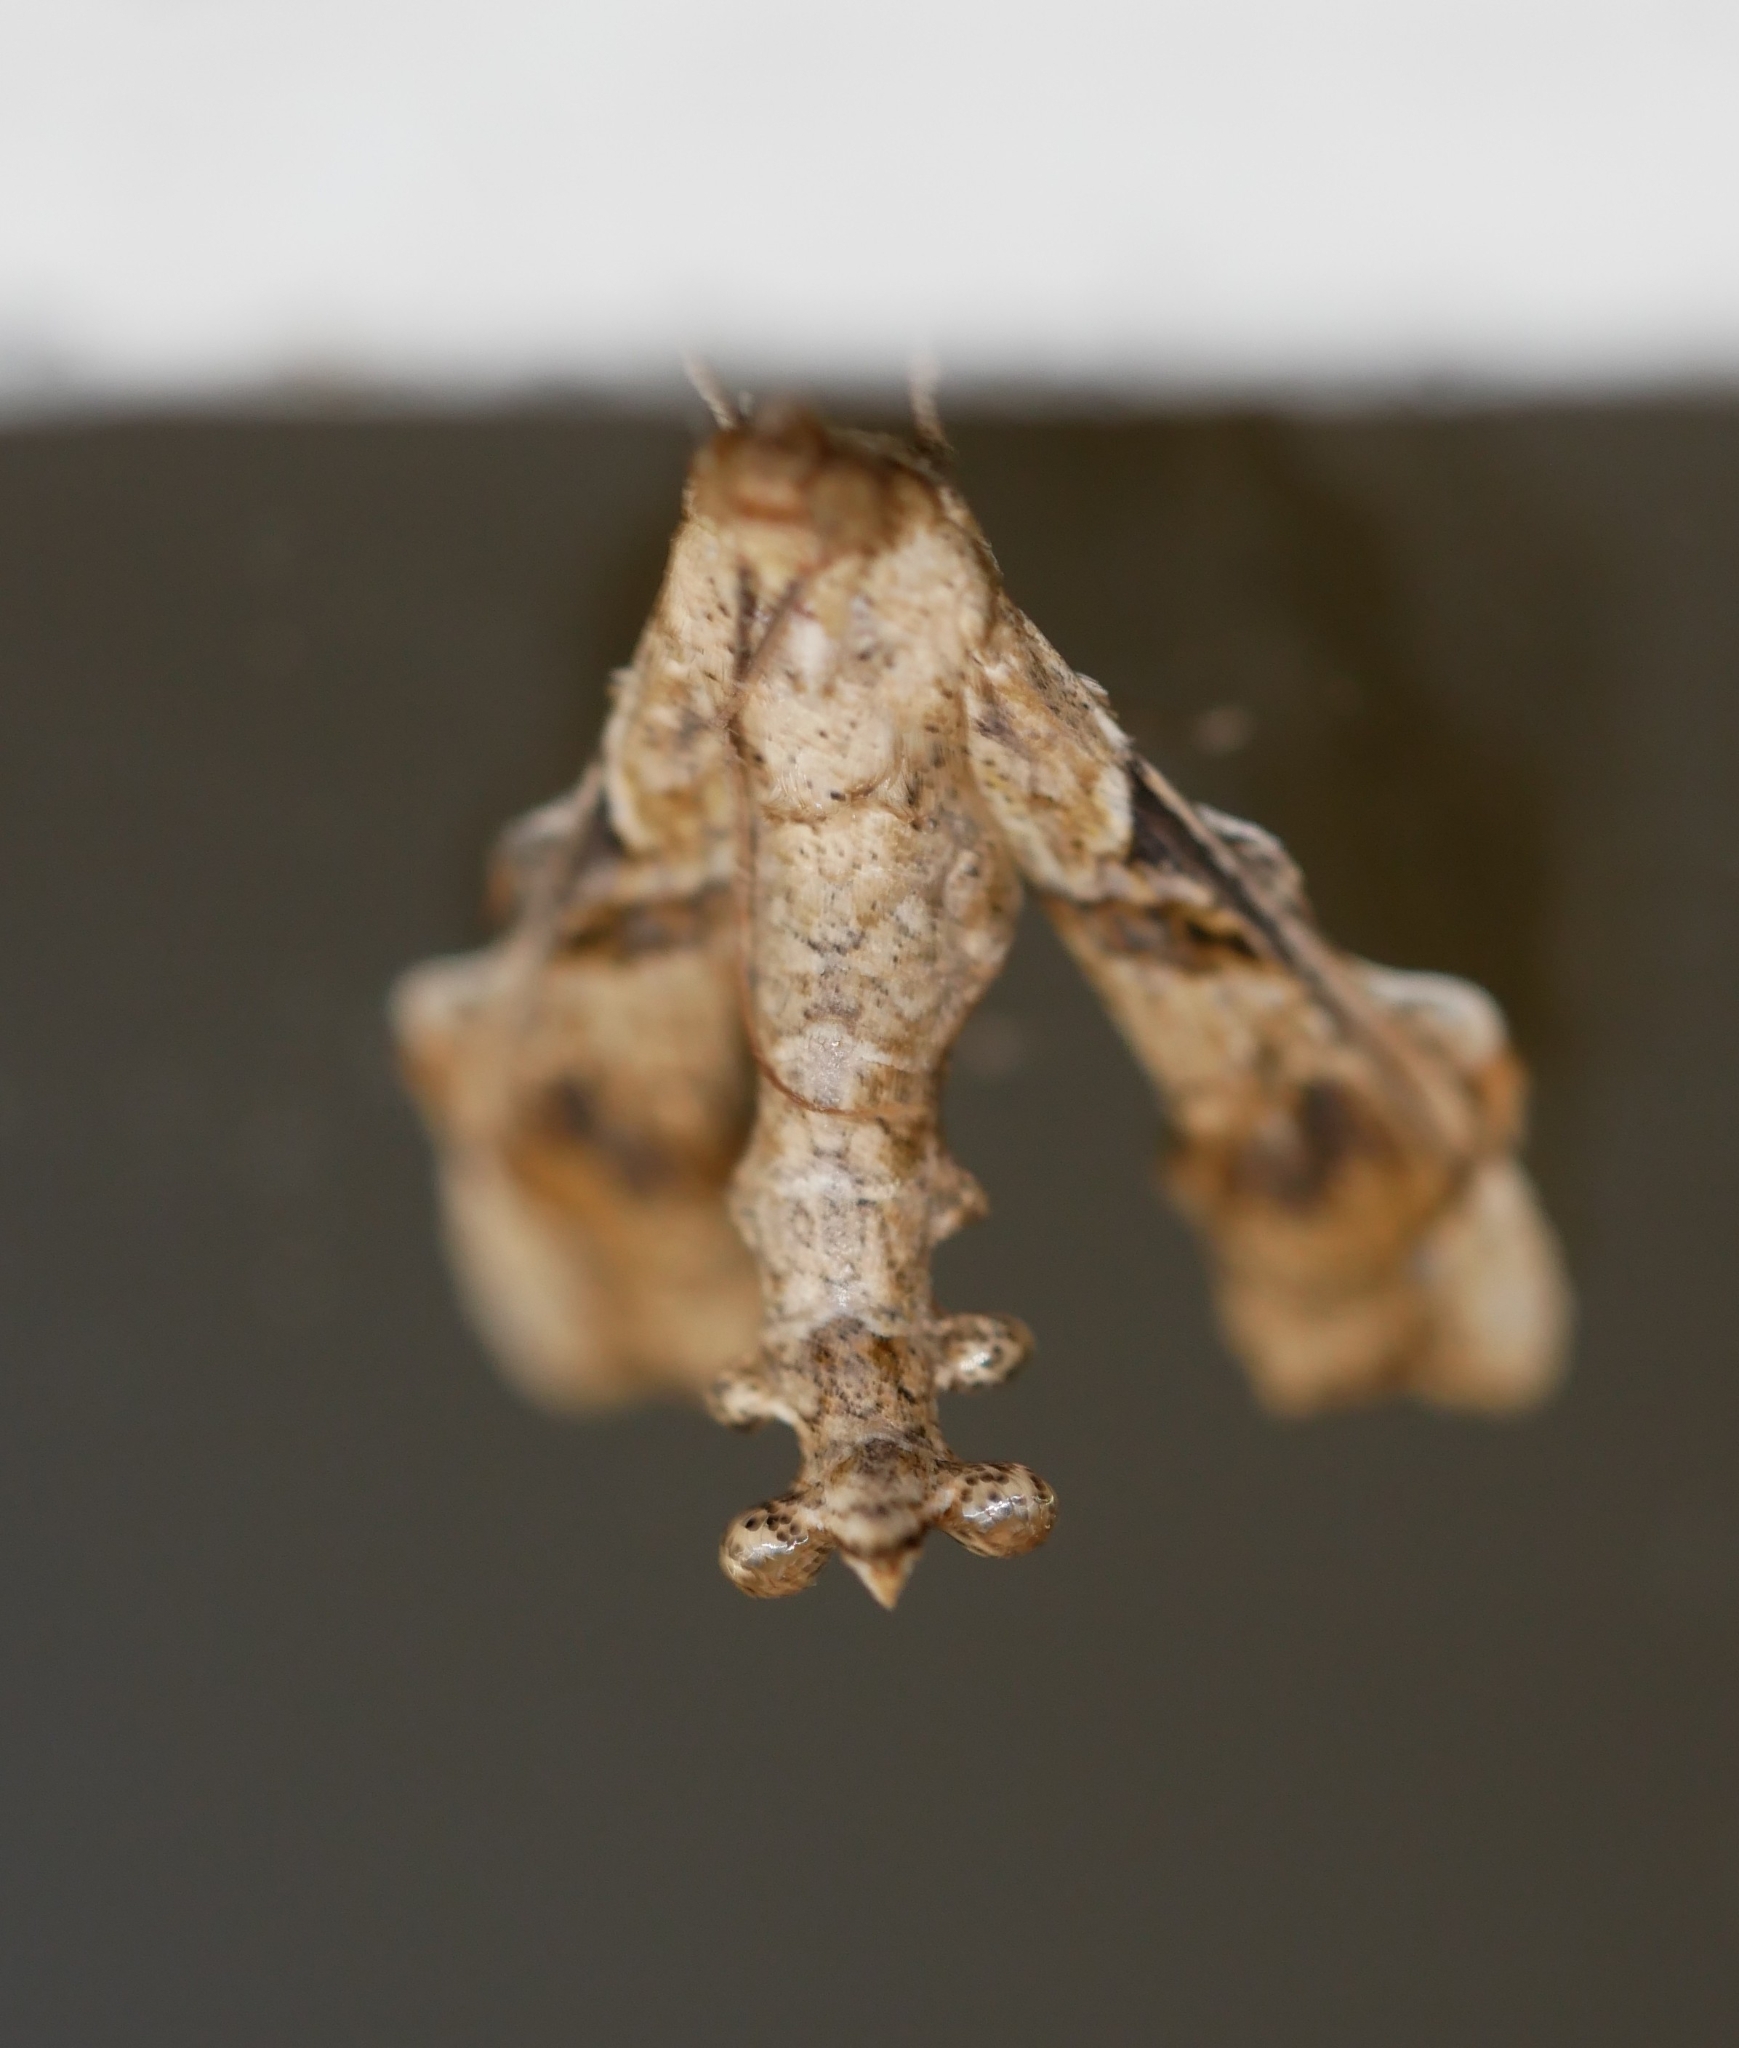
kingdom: Animalia
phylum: Arthropoda
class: Insecta
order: Lepidoptera
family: Crambidae
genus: Terastia
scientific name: Terastia meticulosalis
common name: Moth
